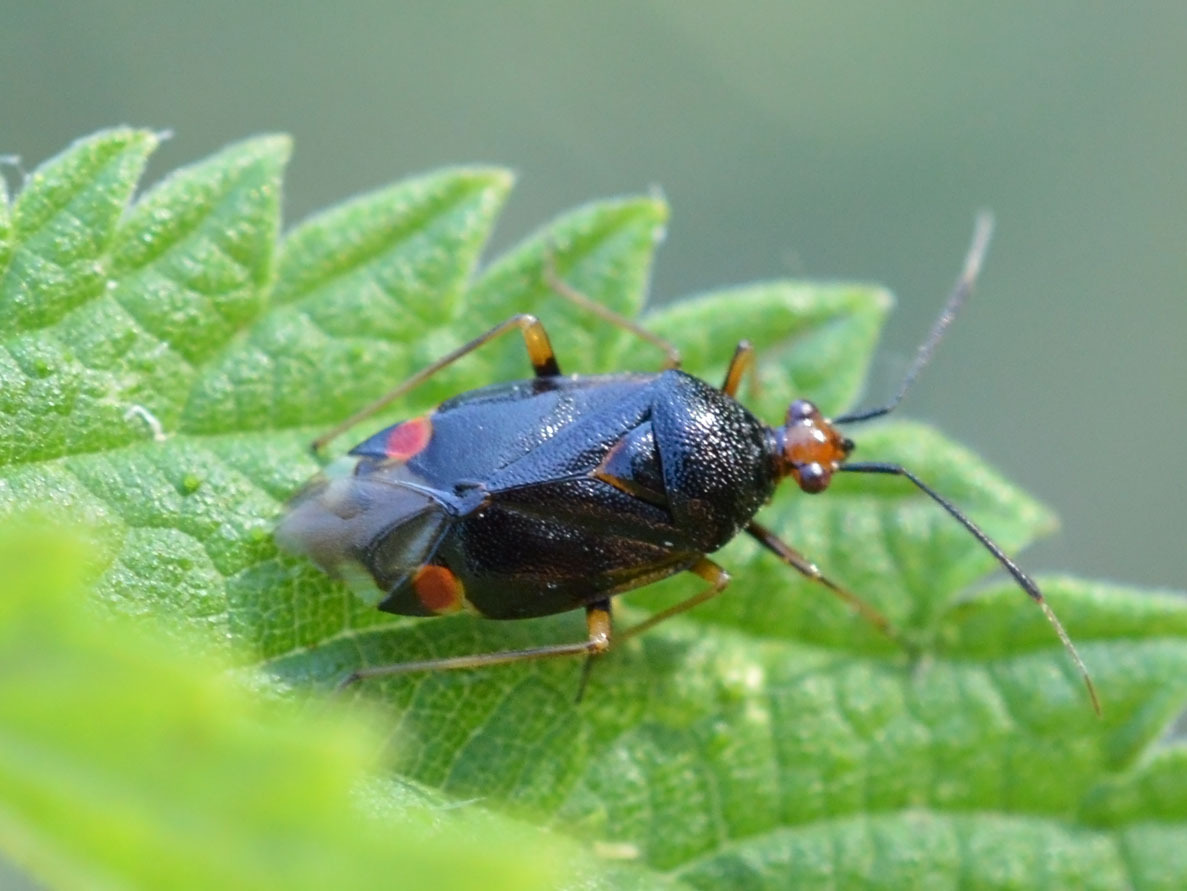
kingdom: Animalia
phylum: Arthropoda
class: Insecta
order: Hemiptera
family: Miridae
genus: Deraeocoris
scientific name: Deraeocoris ruber
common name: Plant bug
